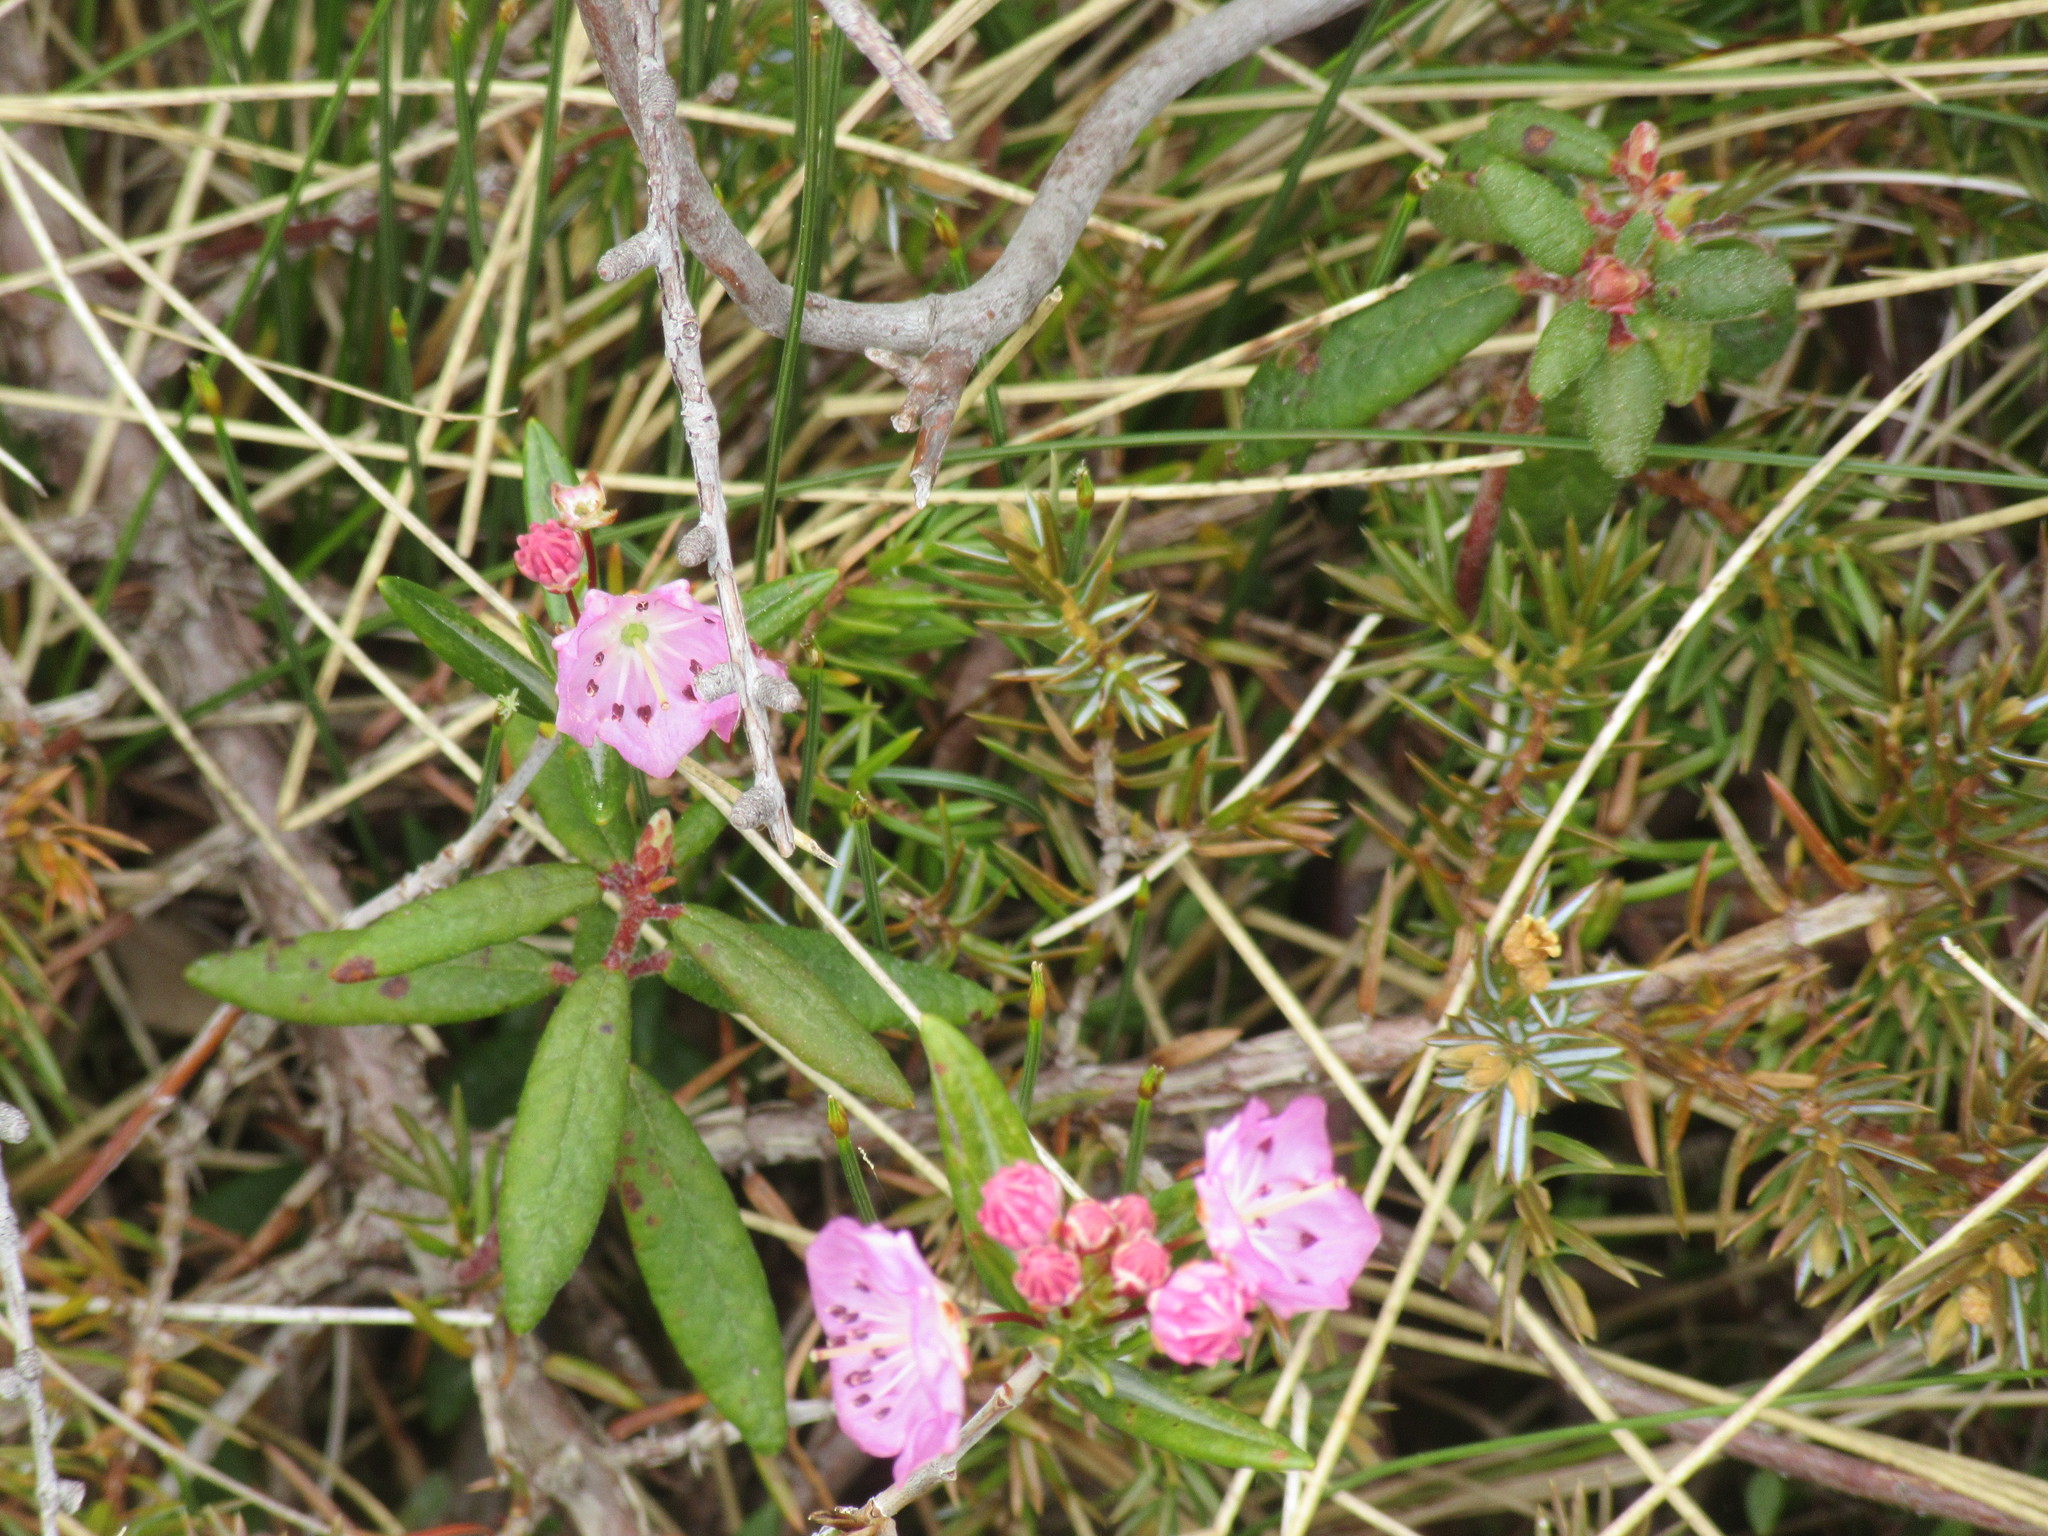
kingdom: Plantae
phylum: Tracheophyta
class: Magnoliopsida
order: Ericales
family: Ericaceae
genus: Kalmia
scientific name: Kalmia polifolia
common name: Bog-laurel
